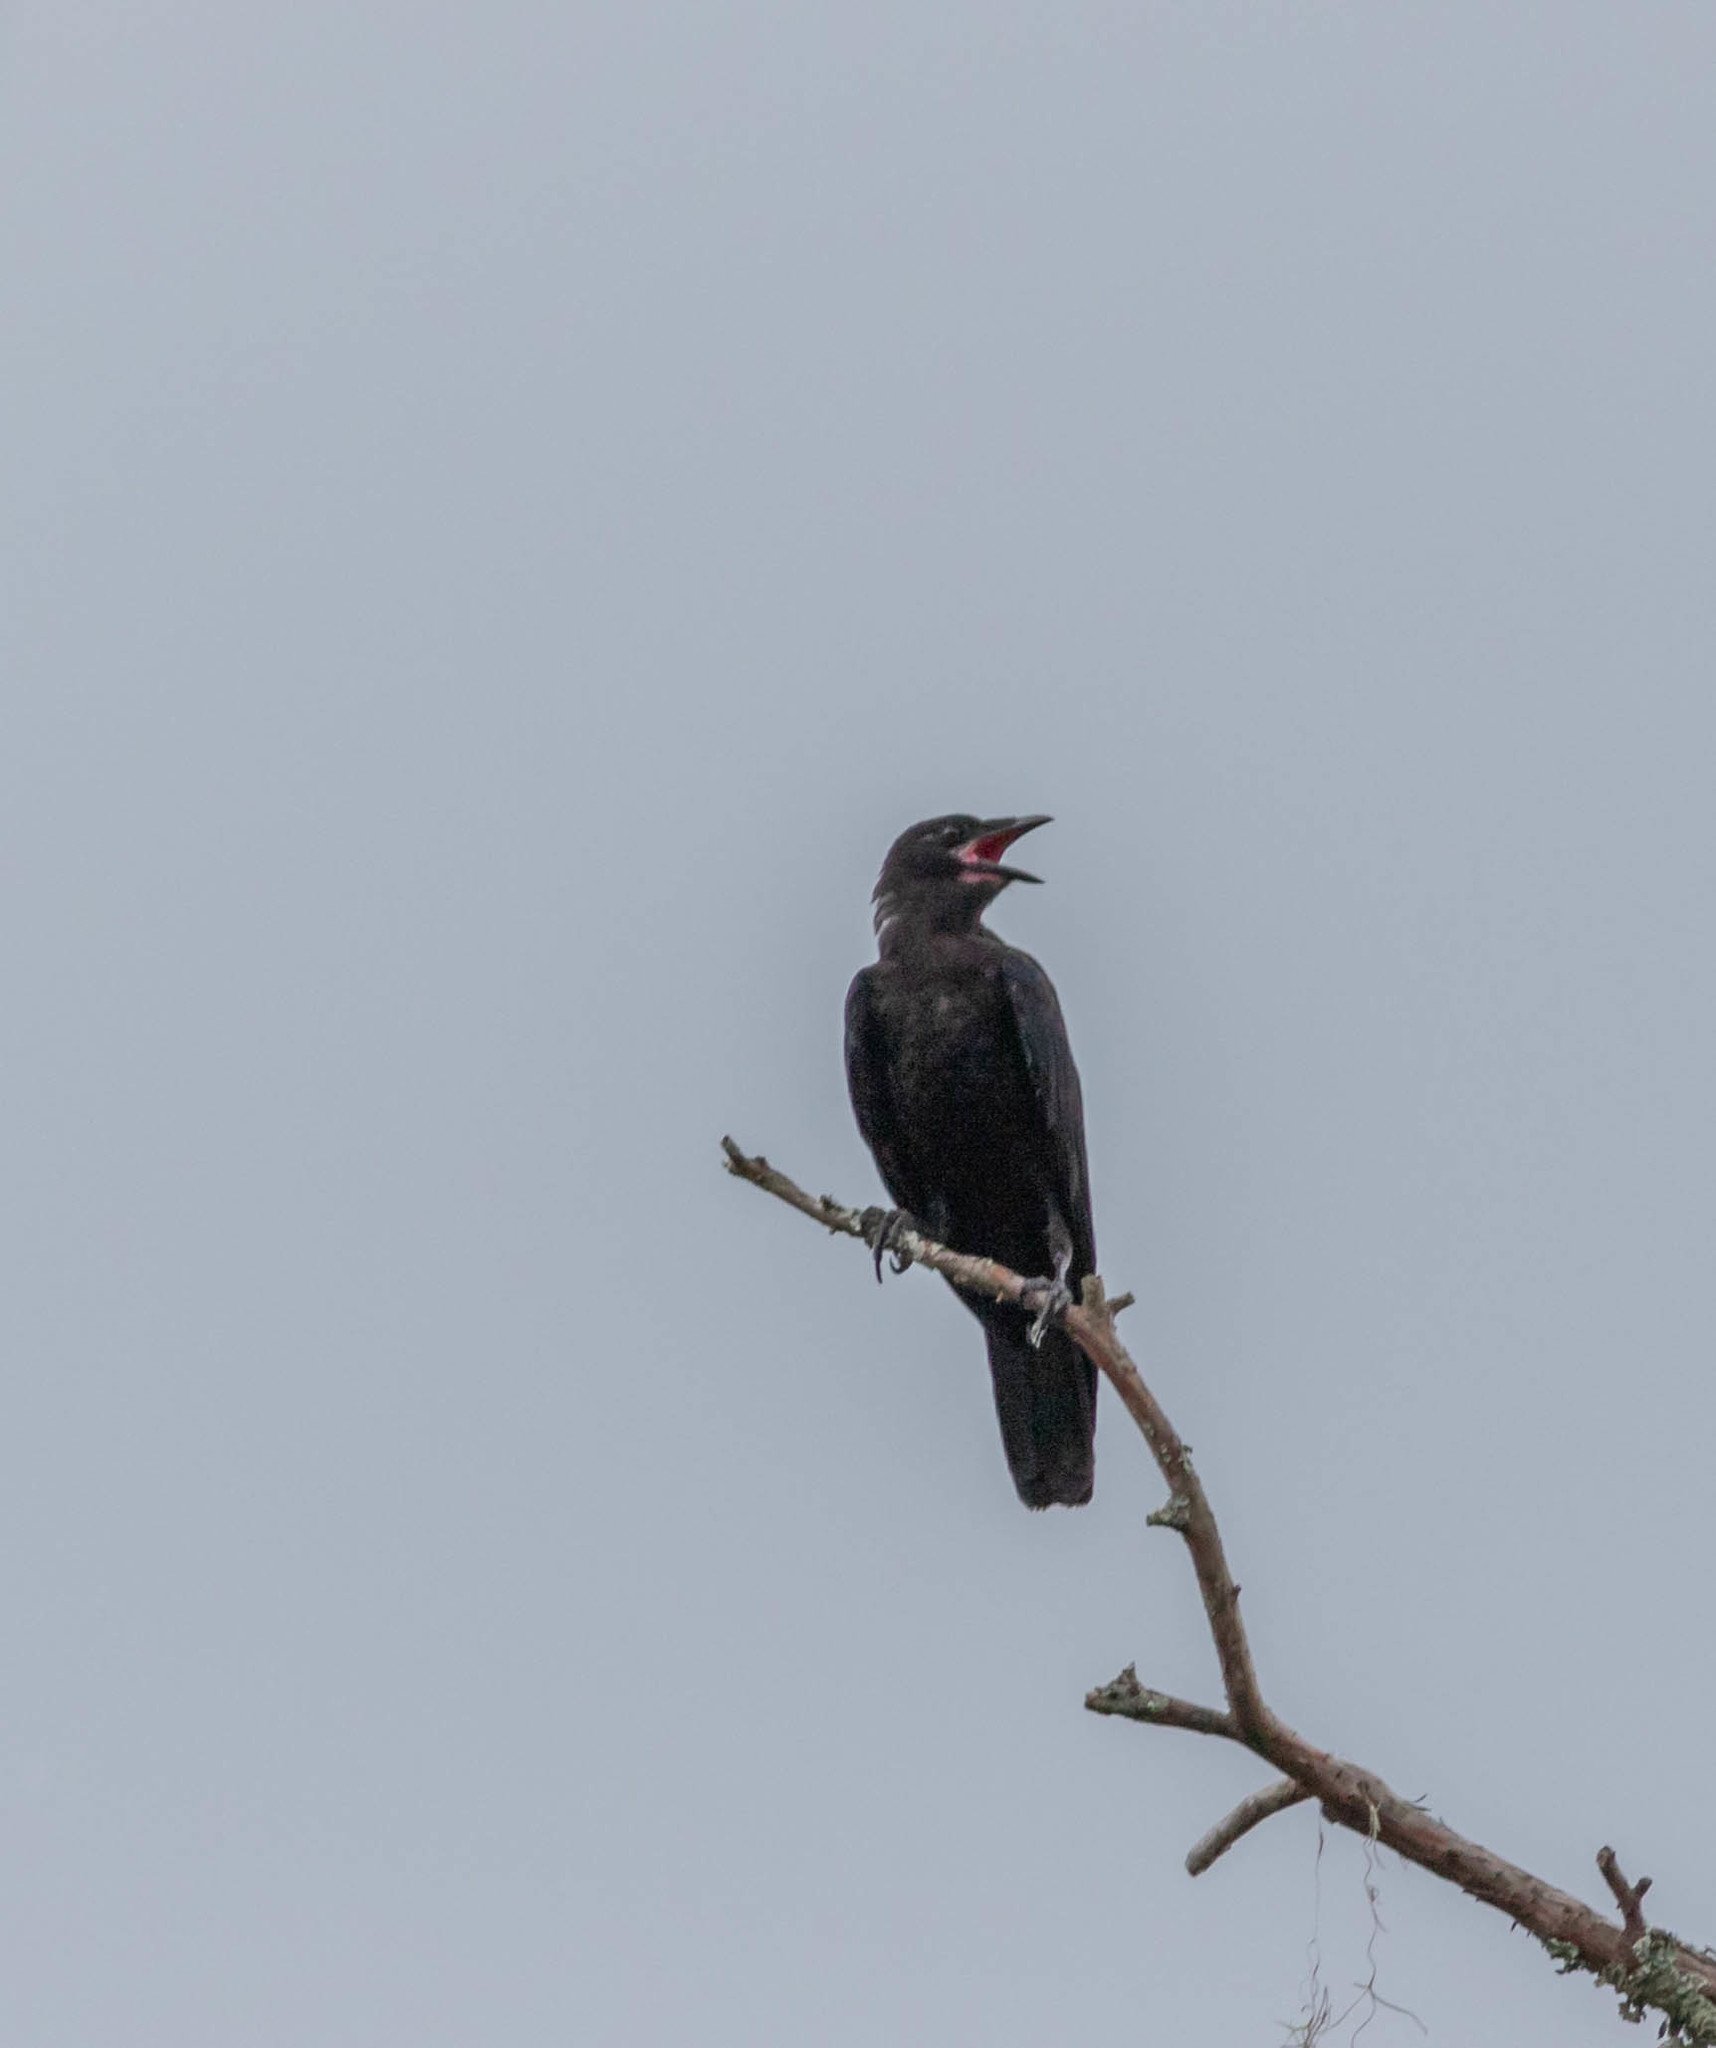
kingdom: Animalia
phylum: Chordata
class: Aves
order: Passeriformes
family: Corvidae
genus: Corvus
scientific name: Corvus
